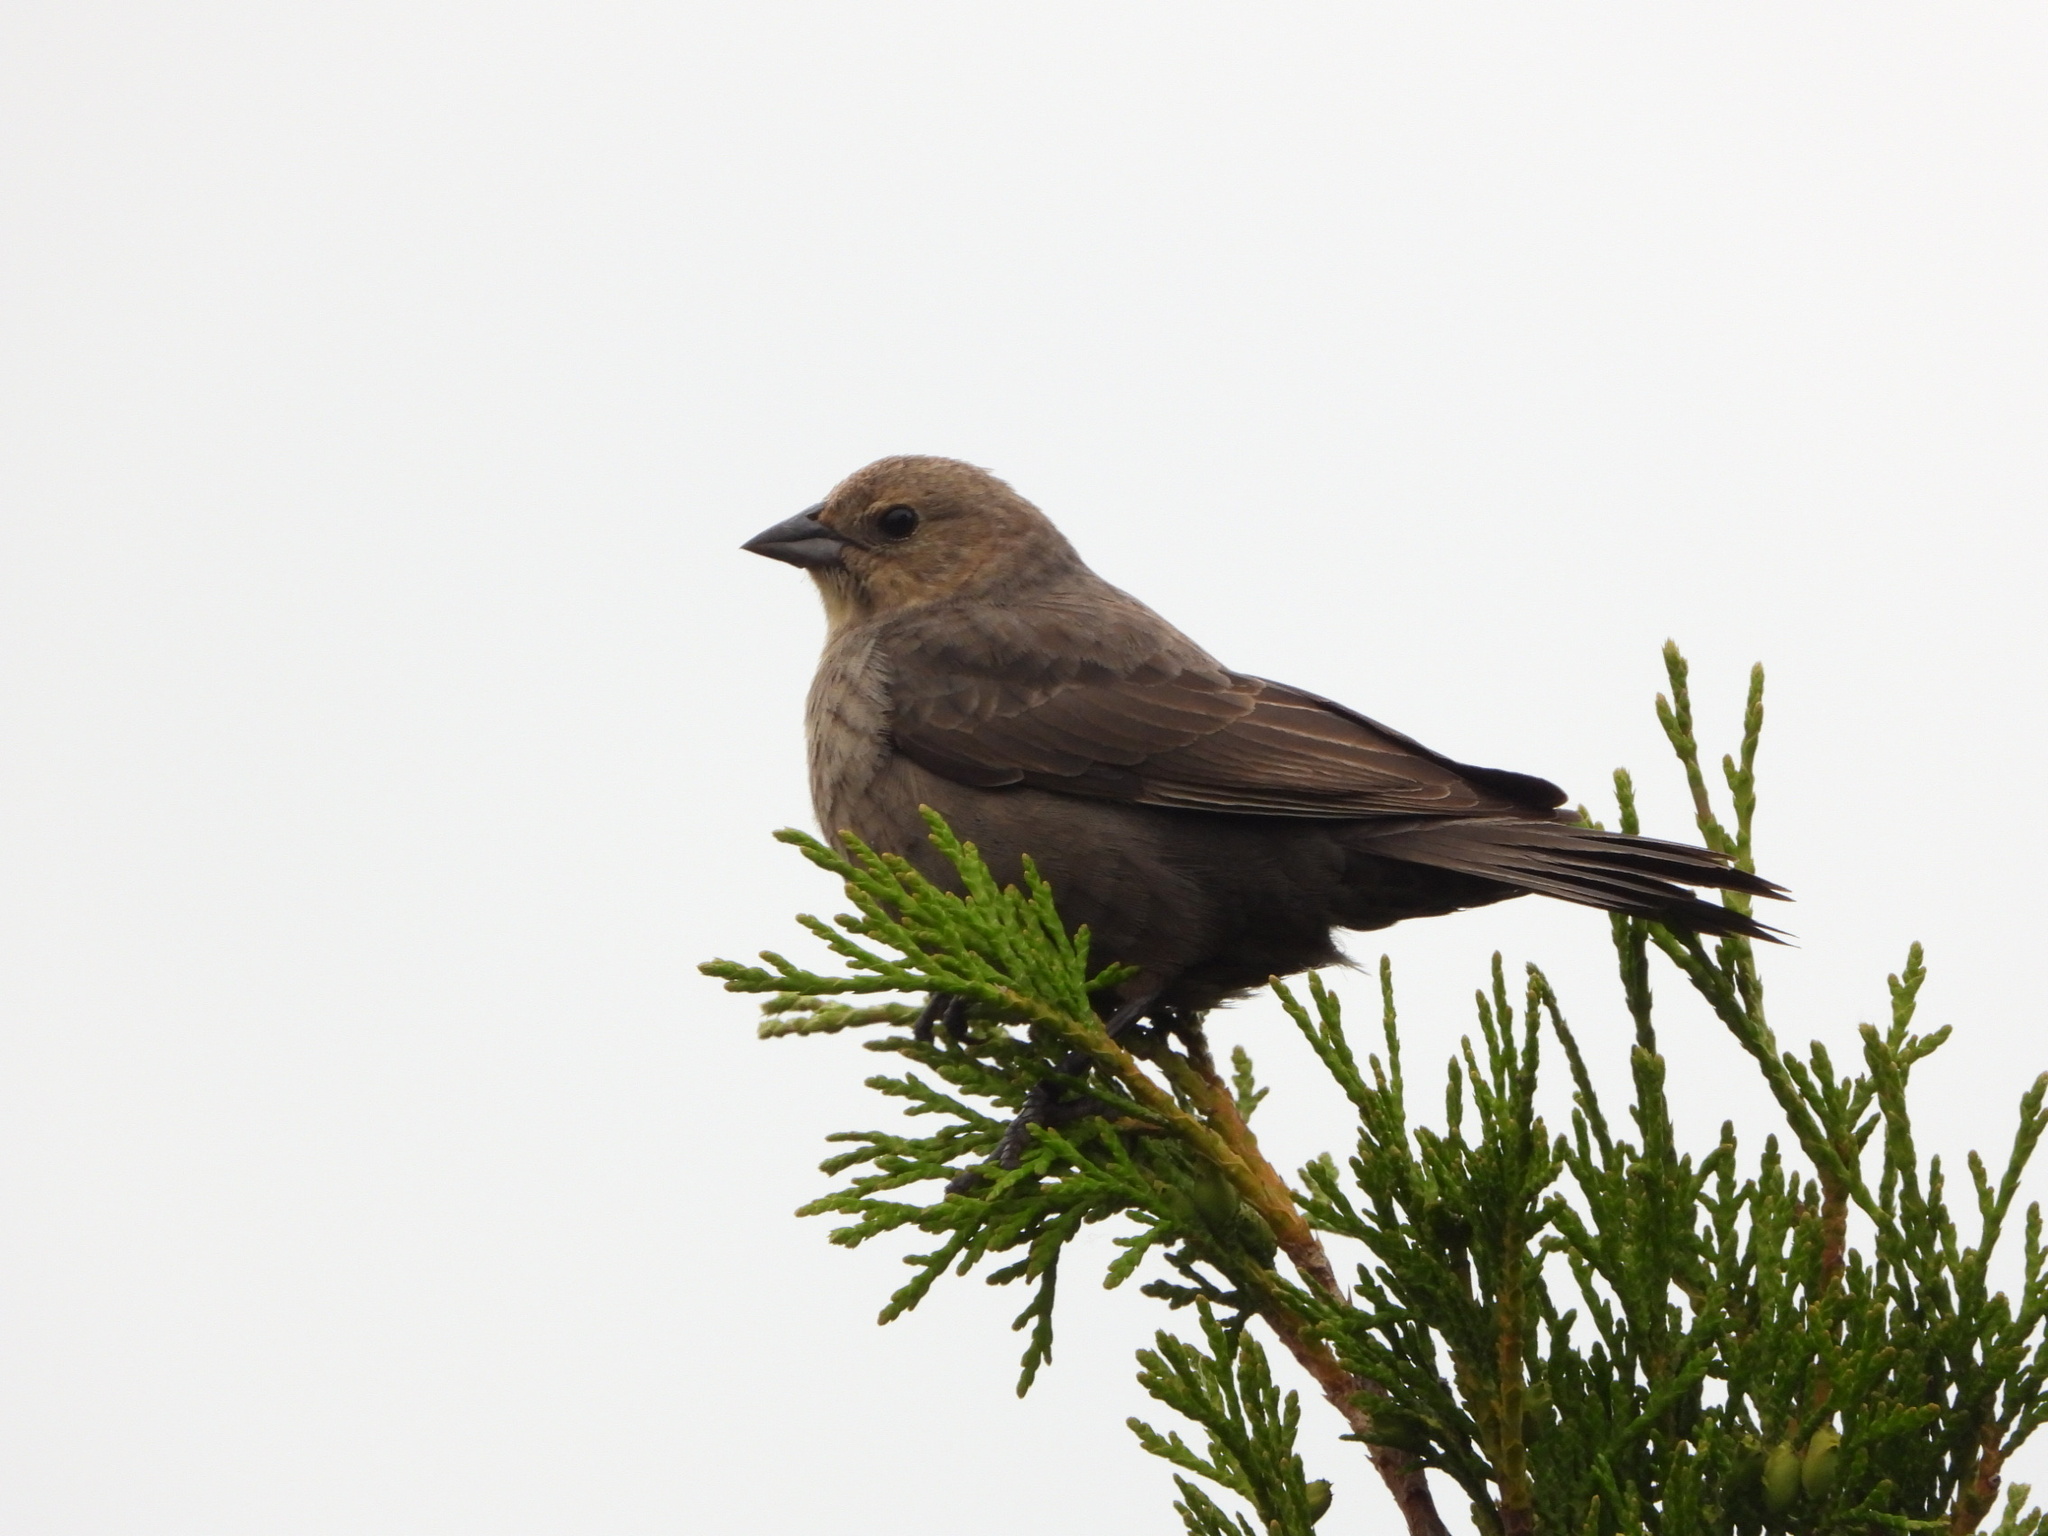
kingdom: Animalia
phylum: Chordata
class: Aves
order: Passeriformes
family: Icteridae
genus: Molothrus
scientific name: Molothrus ater
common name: Brown-headed cowbird
